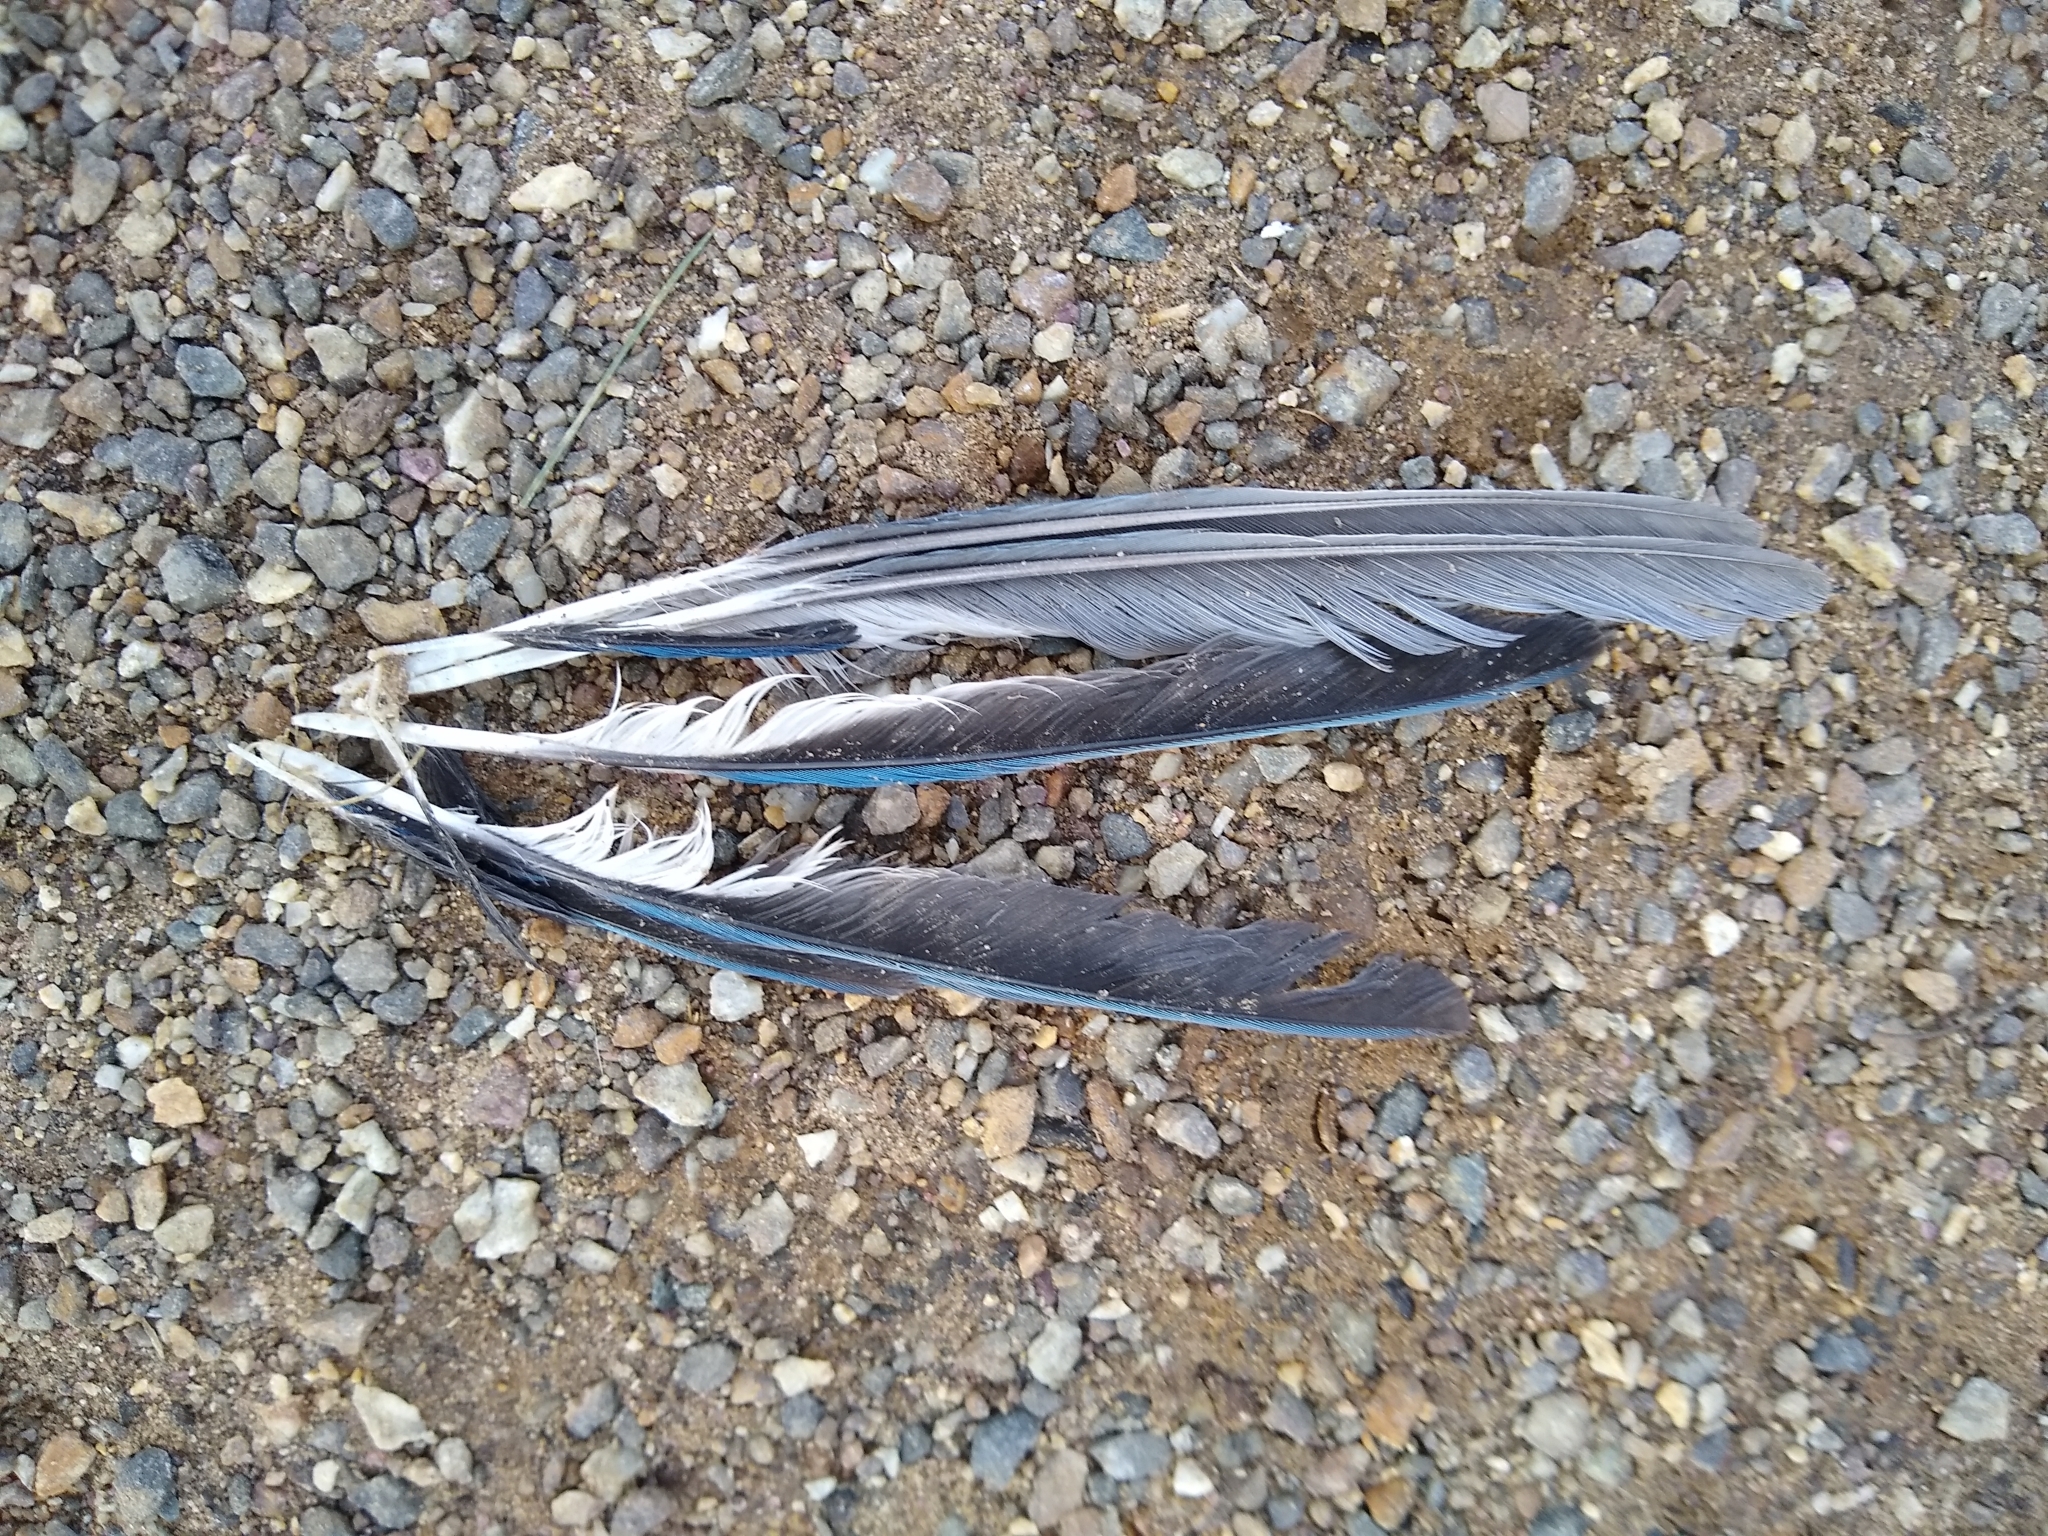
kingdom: Animalia
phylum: Chordata
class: Aves
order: Passeriformes
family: Corvidae
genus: Cyanocitta
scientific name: Cyanocitta cristata
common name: Blue jay
